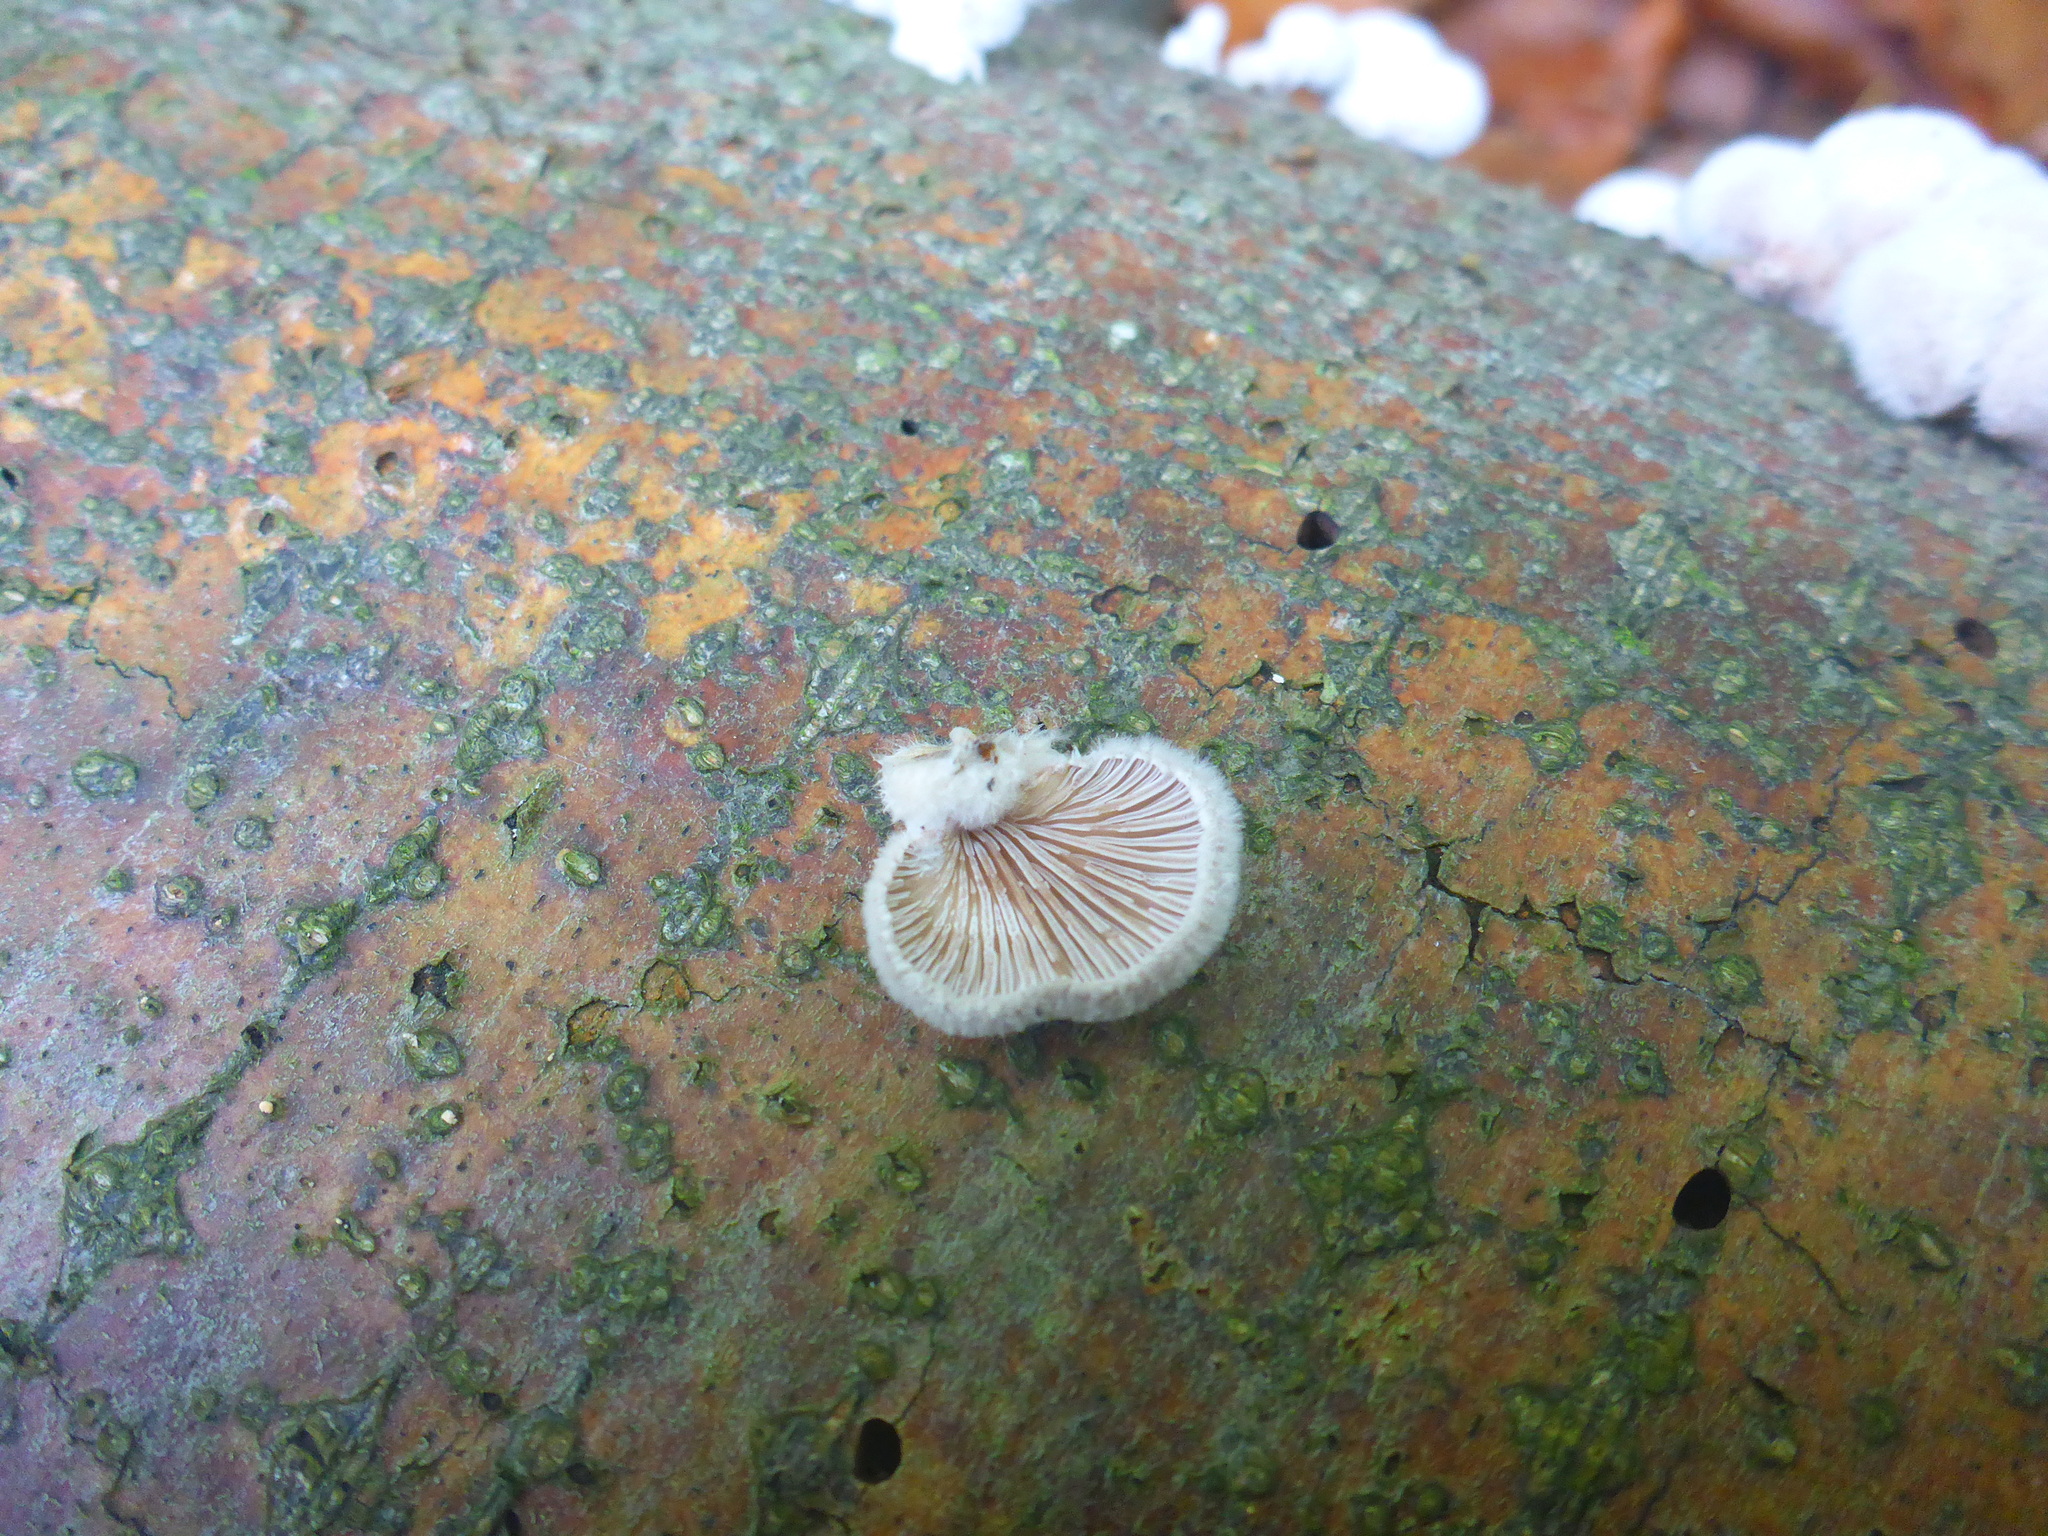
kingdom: Fungi
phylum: Basidiomycota
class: Agaricomycetes
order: Agaricales
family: Schizophyllaceae
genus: Schizophyllum
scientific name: Schizophyllum commune
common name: Common porecrust
